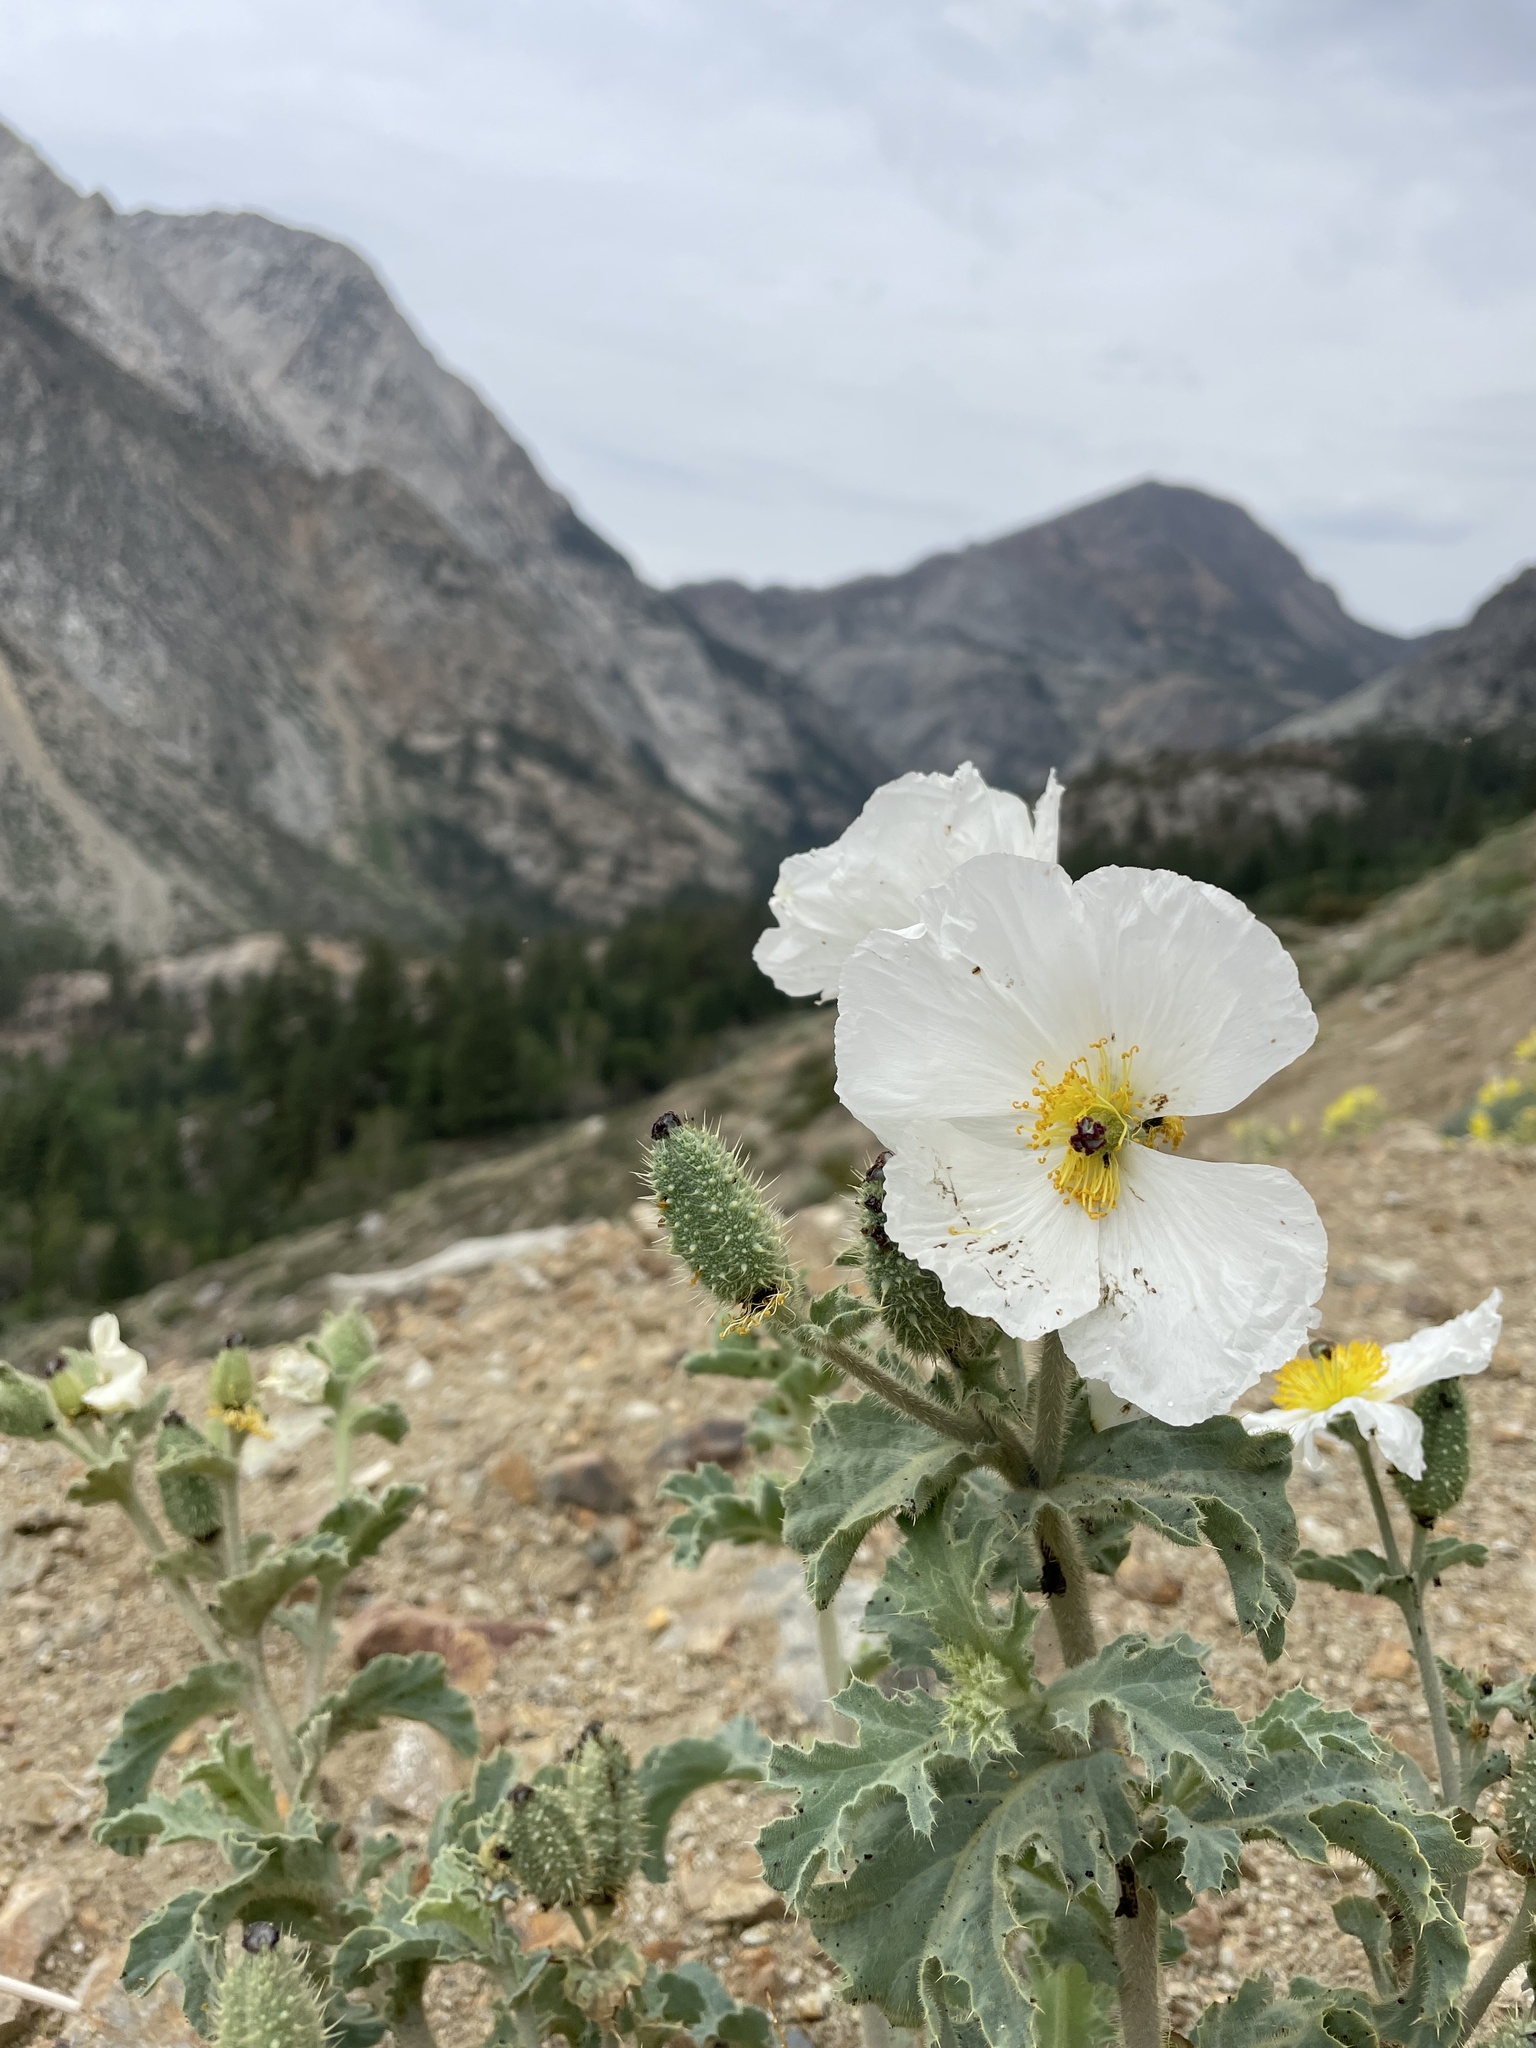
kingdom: Plantae
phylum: Tracheophyta
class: Magnoliopsida
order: Ranunculales
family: Papaveraceae
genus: Argemone
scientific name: Argemone munita
